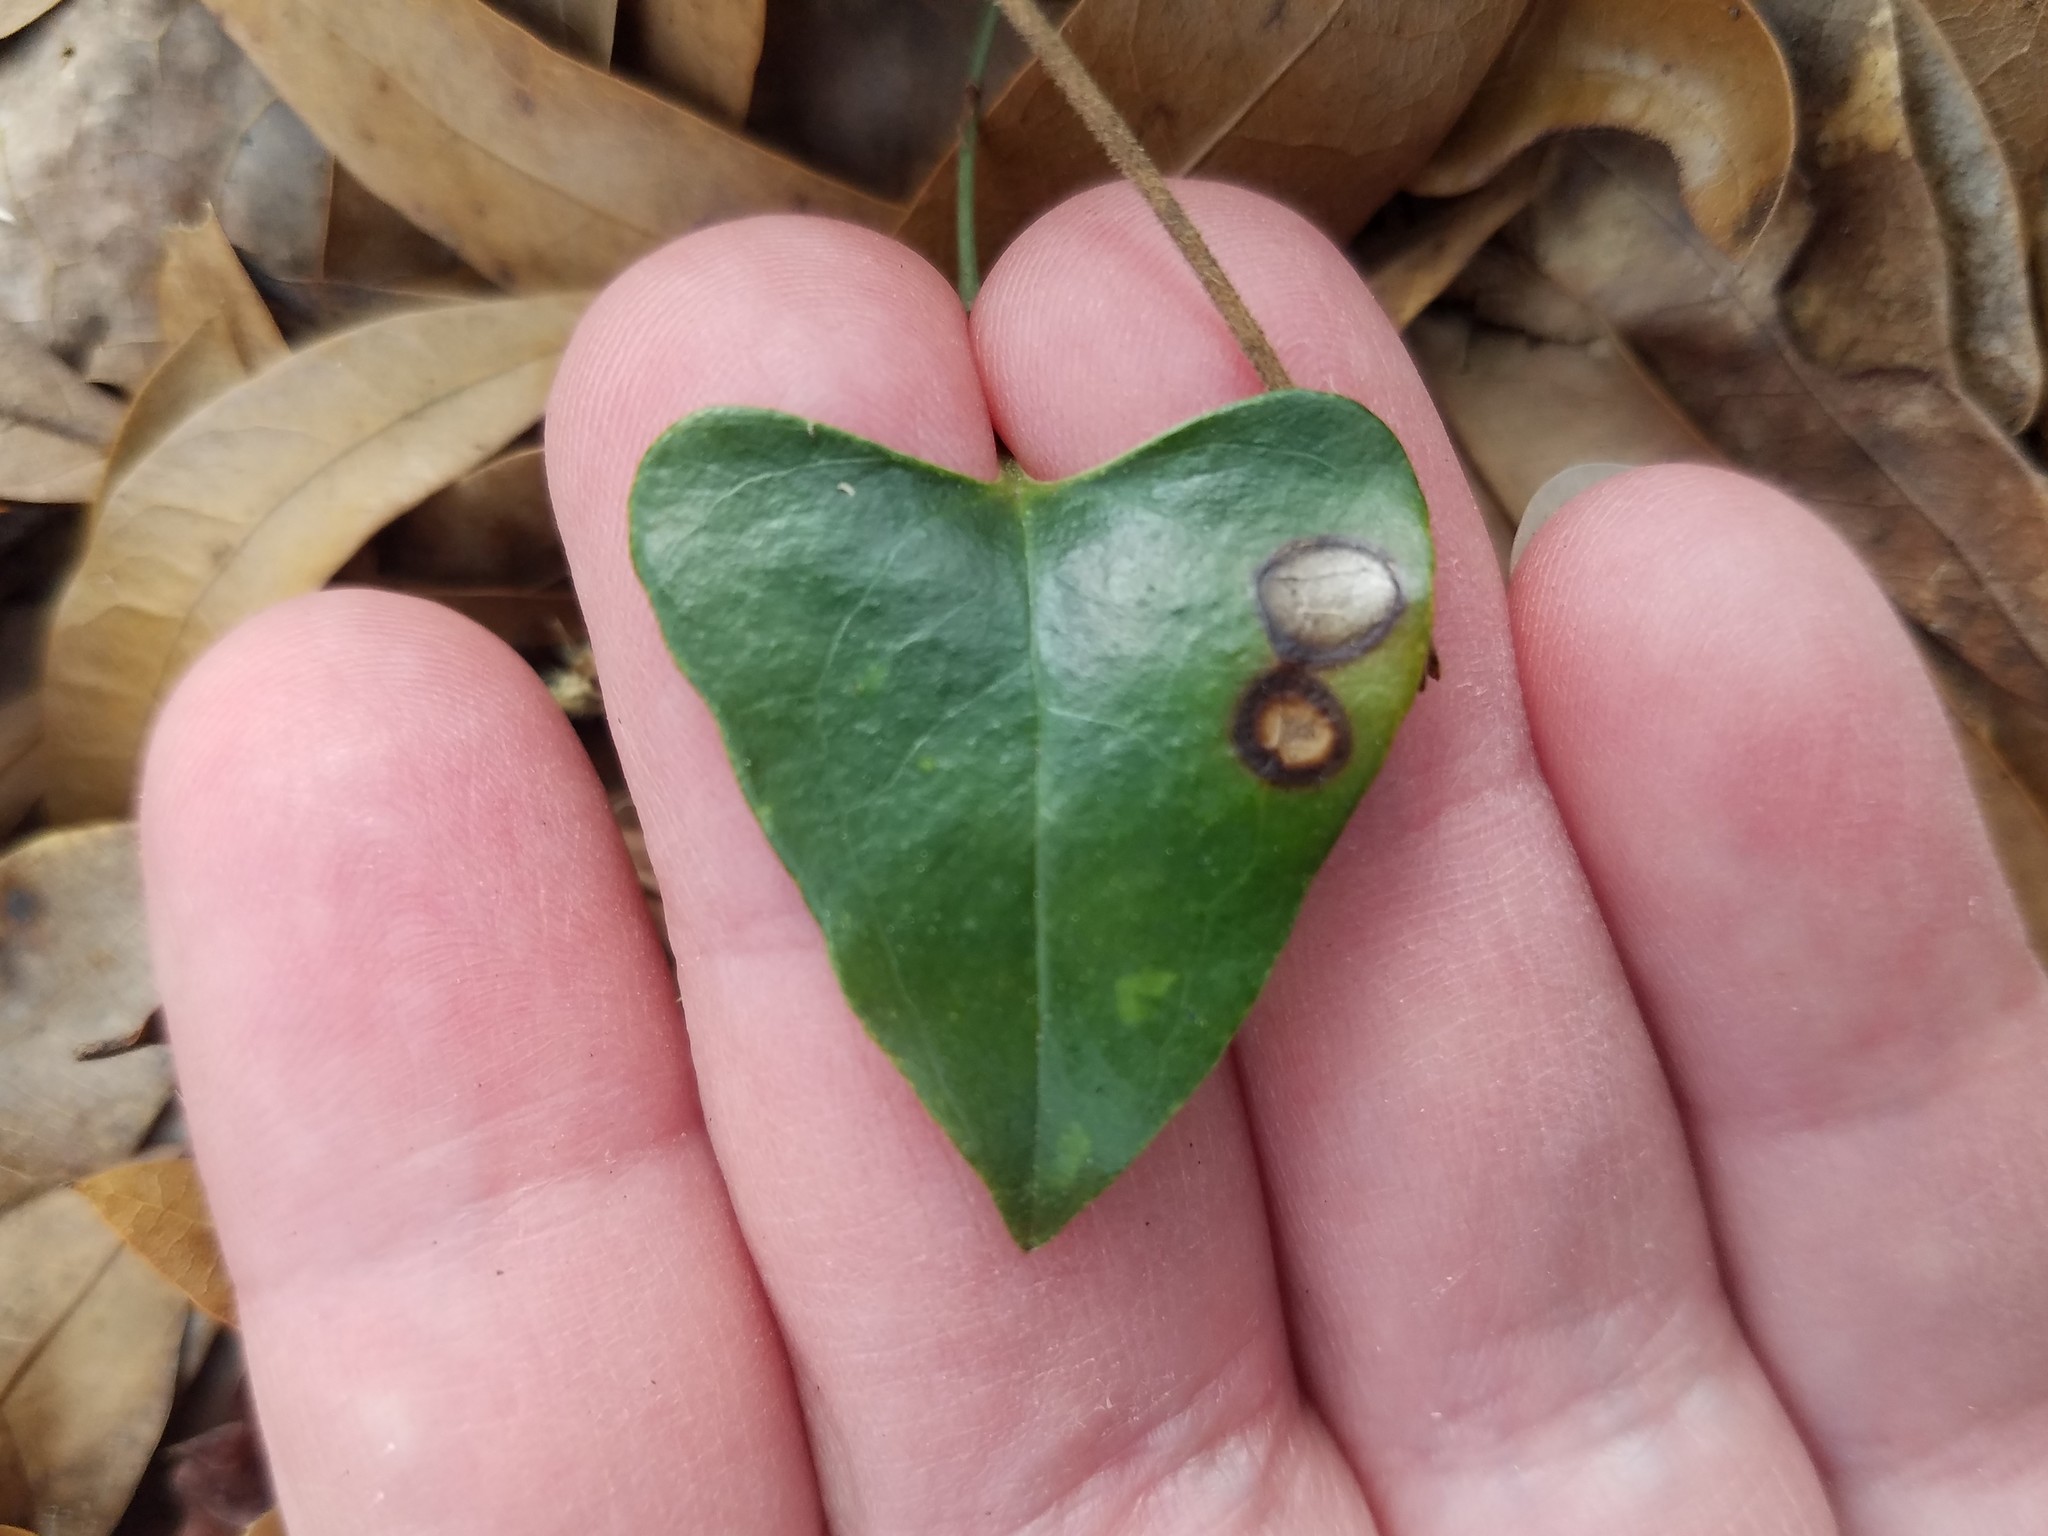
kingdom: Plantae
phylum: Tracheophyta
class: Liliopsida
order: Liliales
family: Smilacaceae
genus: Smilax
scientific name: Smilax maritima
